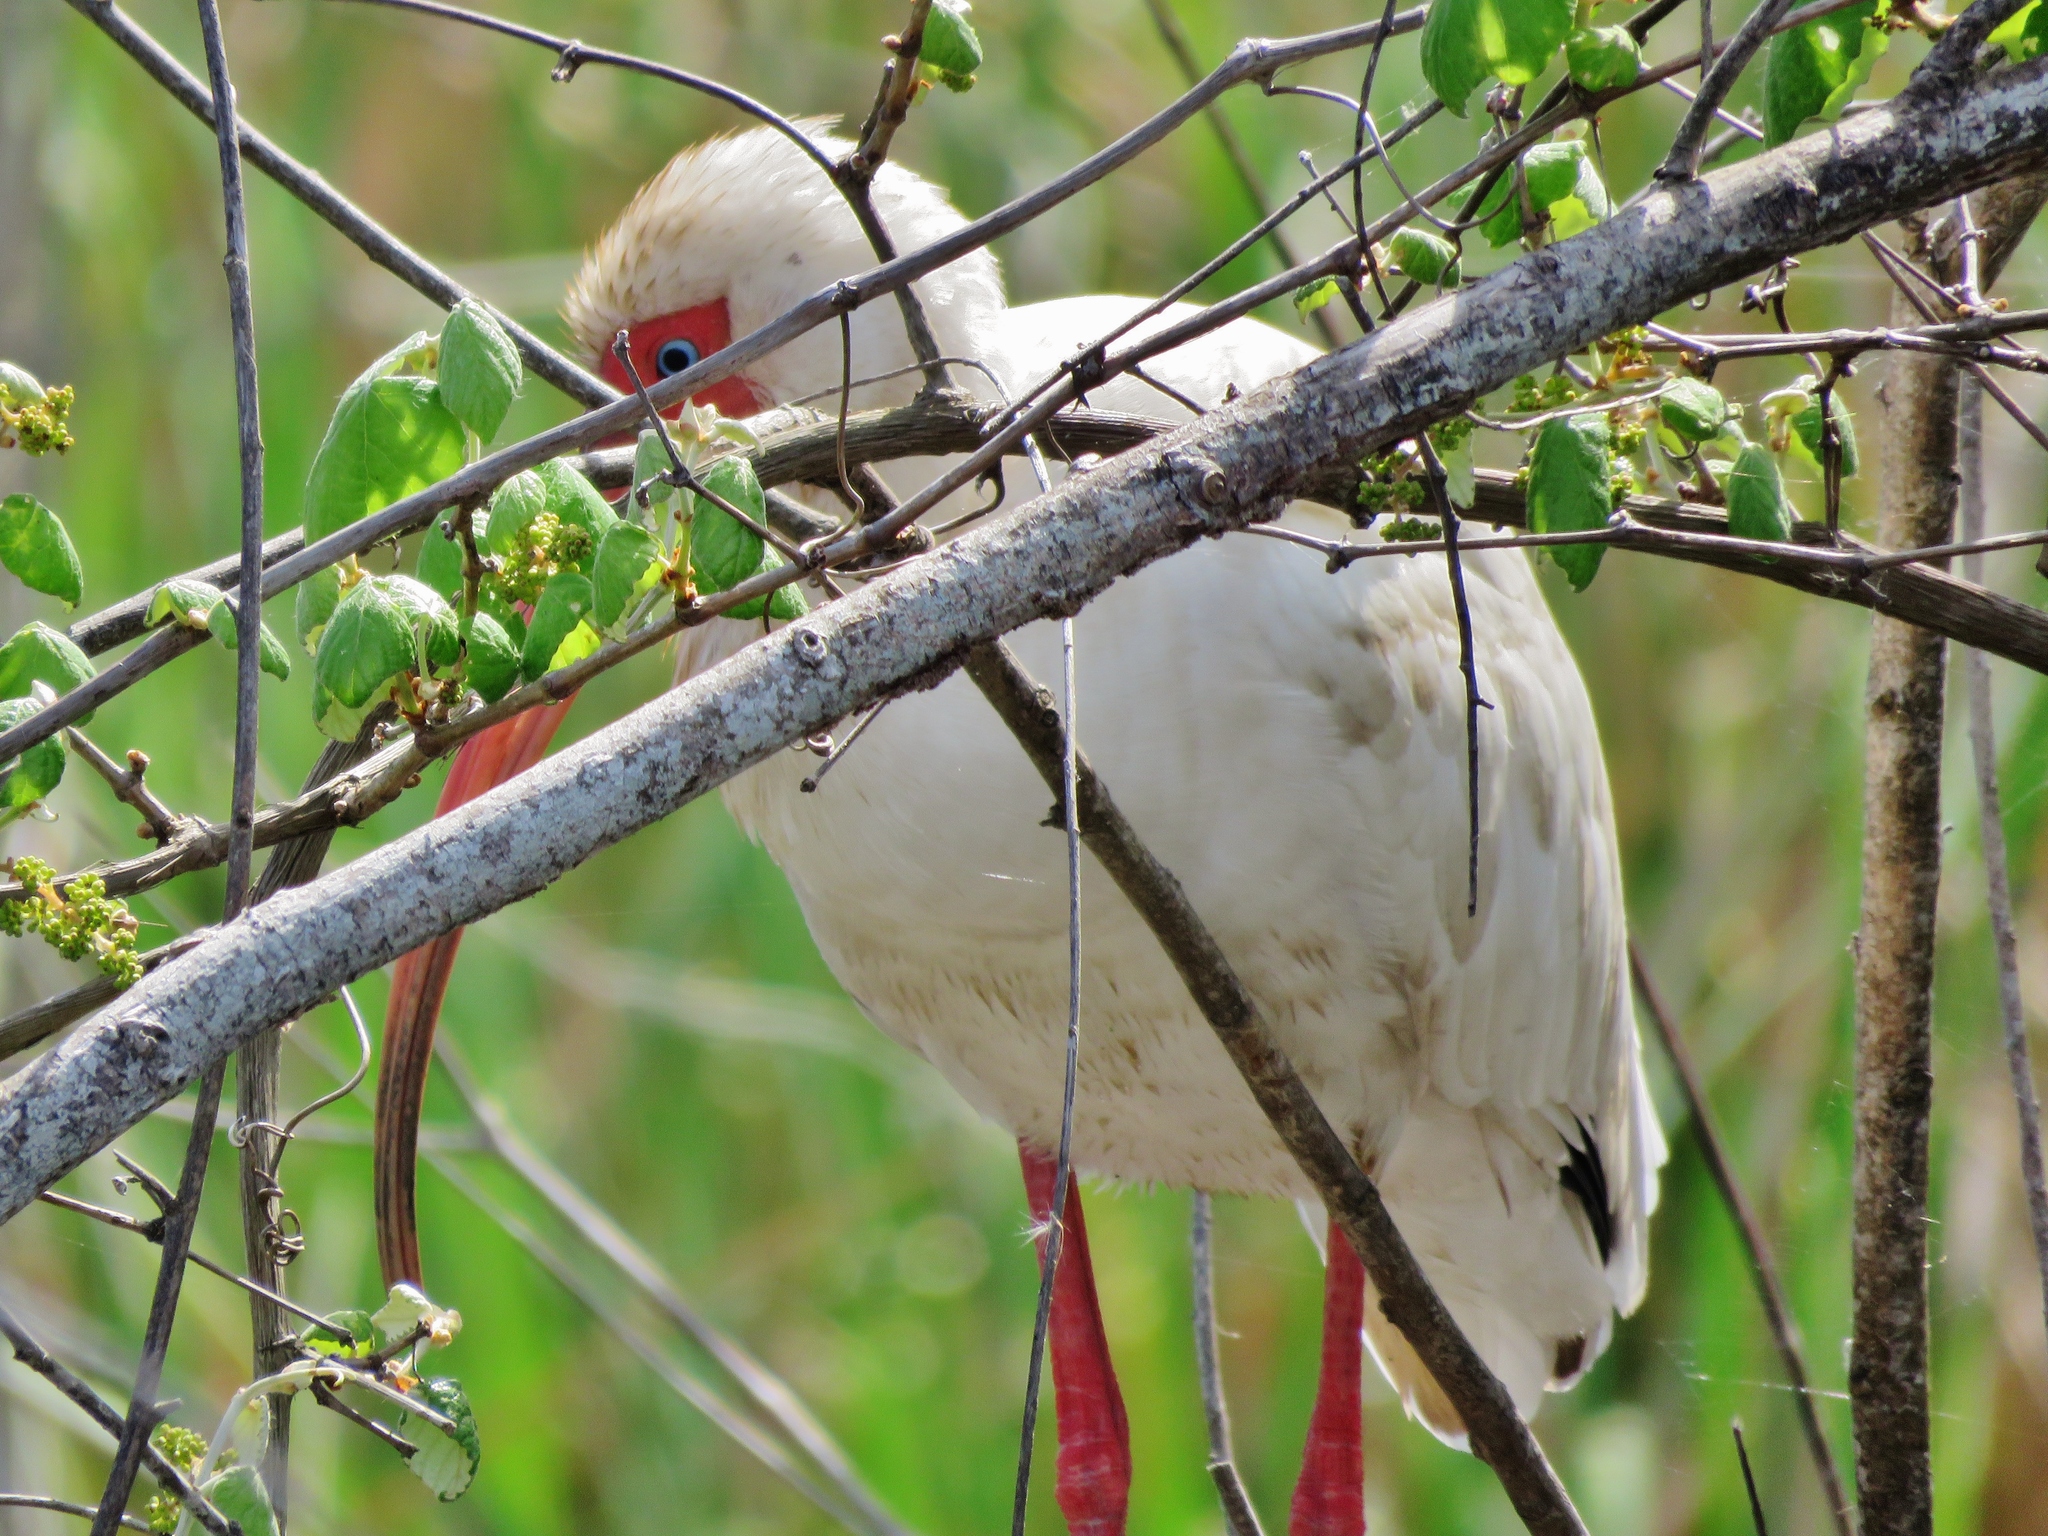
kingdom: Animalia
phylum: Chordata
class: Aves
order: Pelecaniformes
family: Threskiornithidae
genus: Eudocimus
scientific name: Eudocimus albus
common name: White ibis
